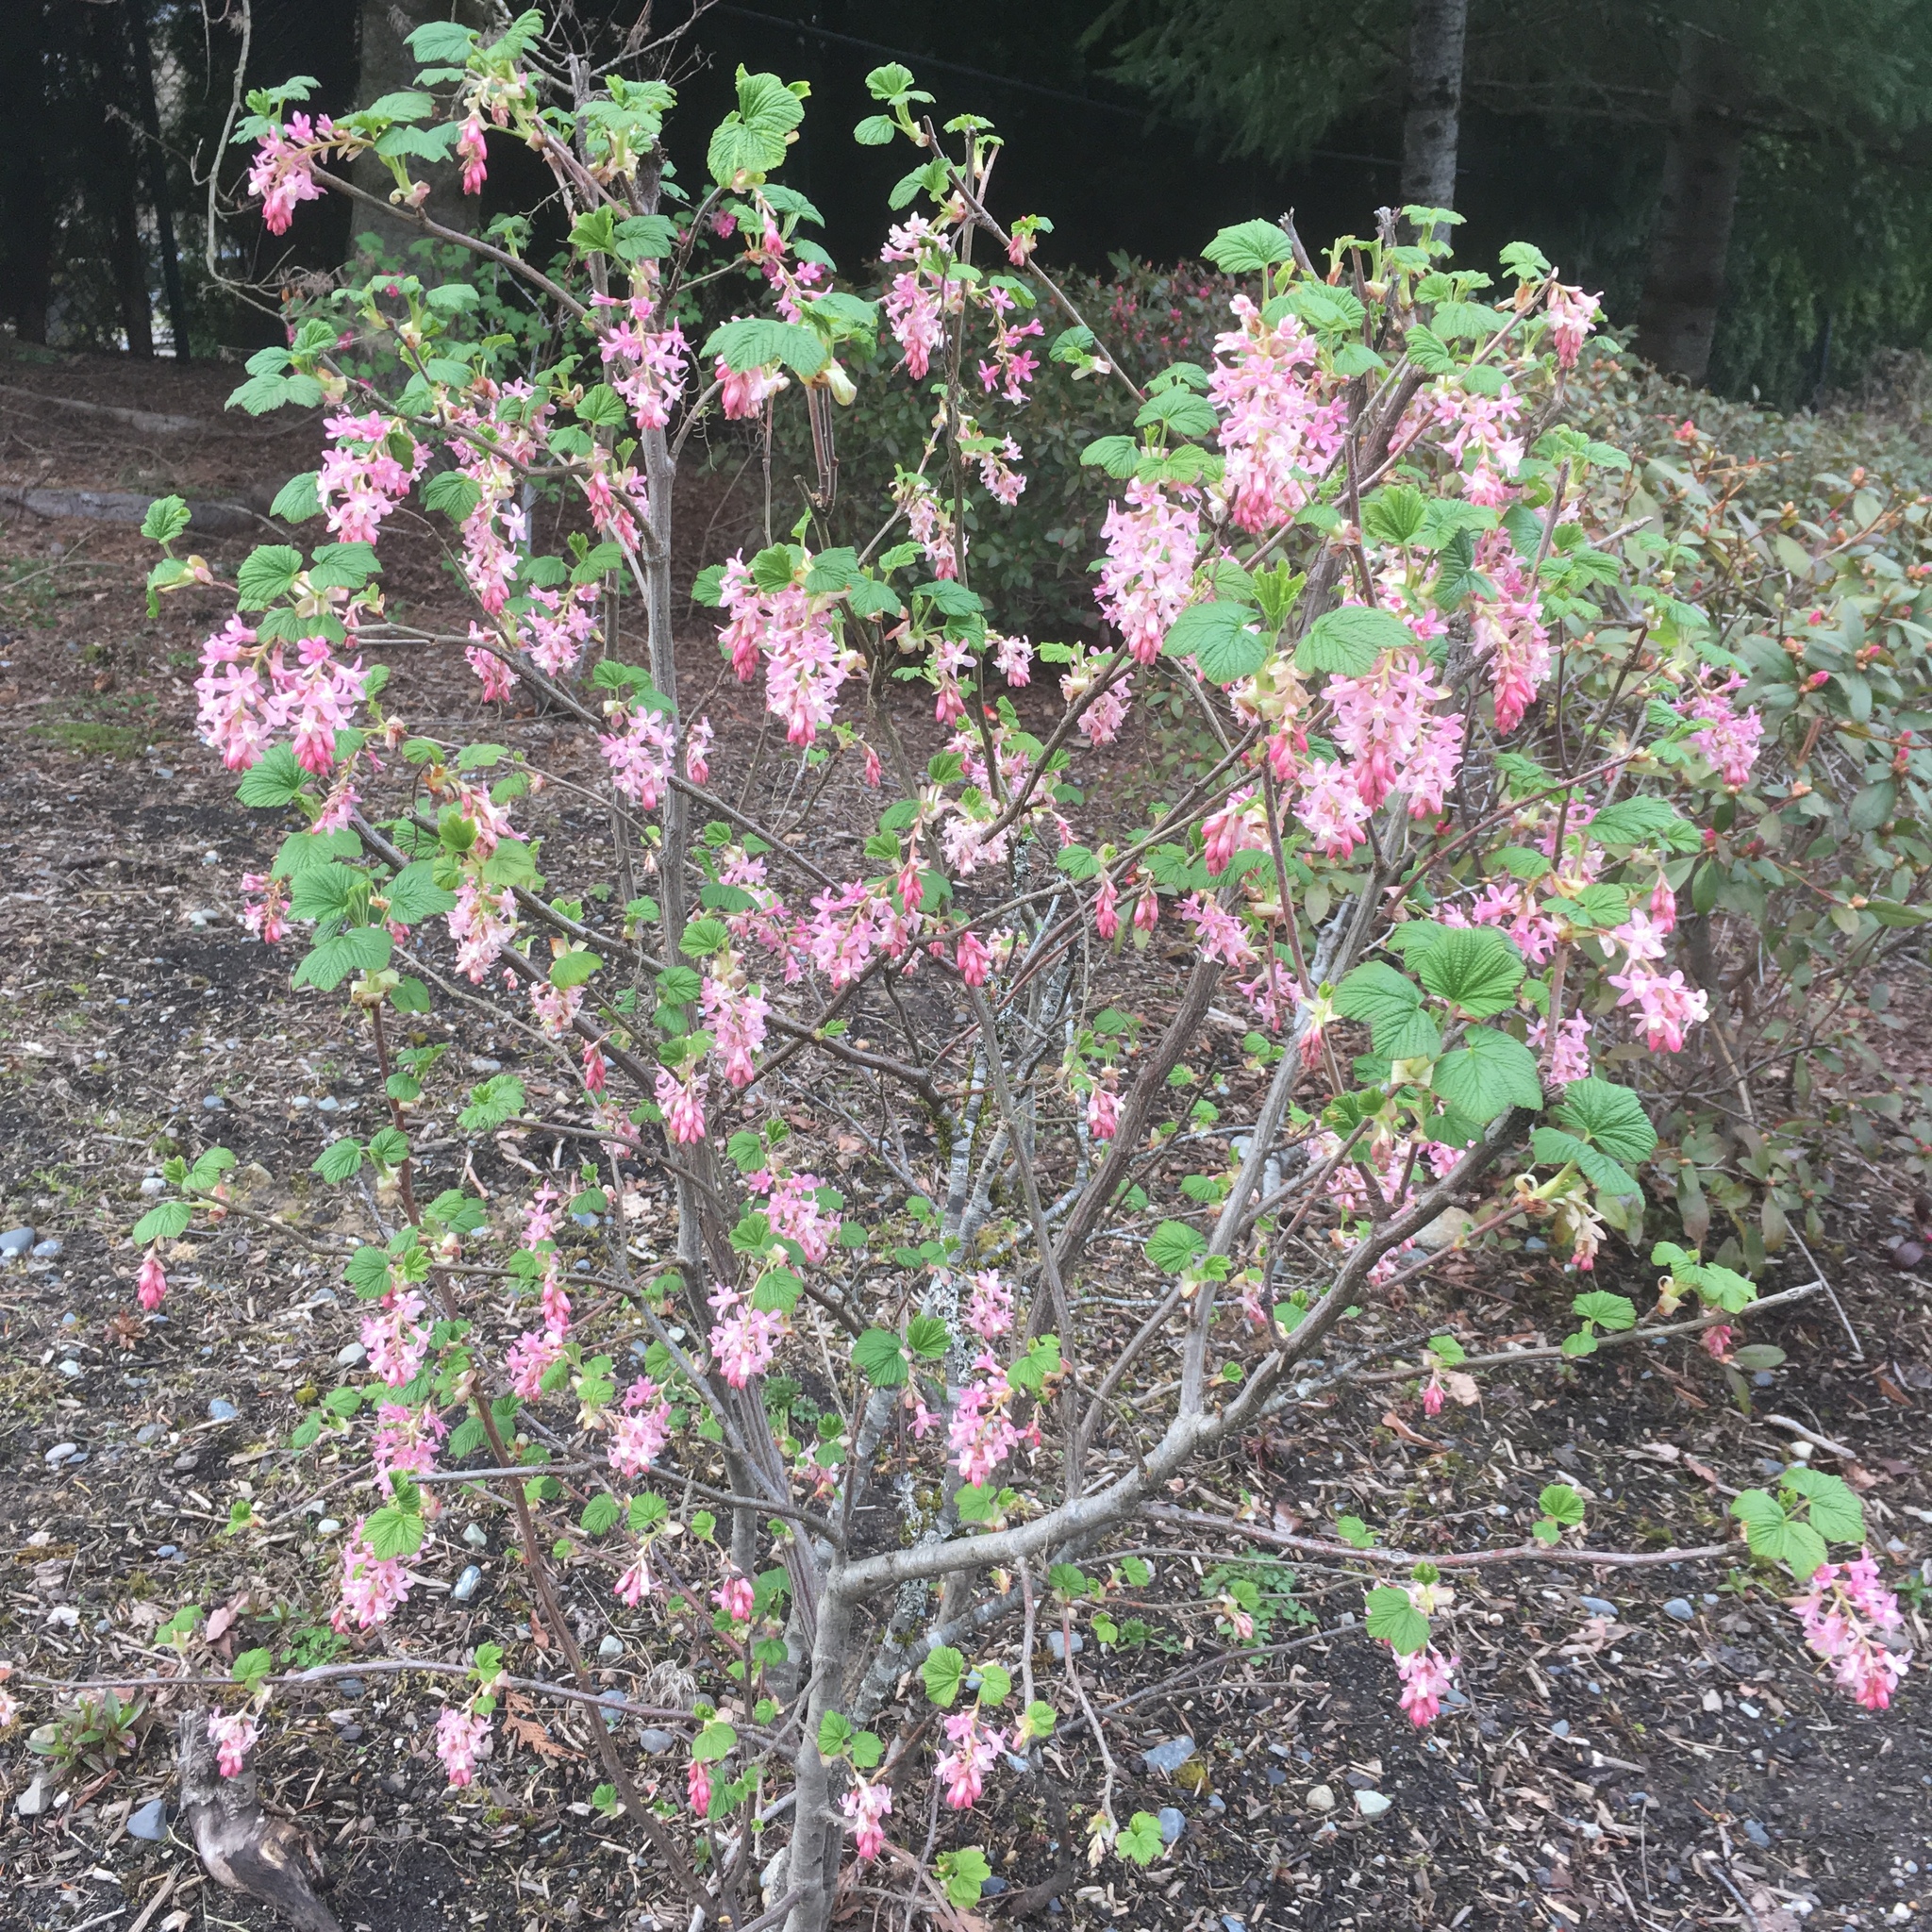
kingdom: Plantae
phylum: Tracheophyta
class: Magnoliopsida
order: Saxifragales
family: Grossulariaceae
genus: Ribes
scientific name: Ribes sanguineum
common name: Flowering currant
